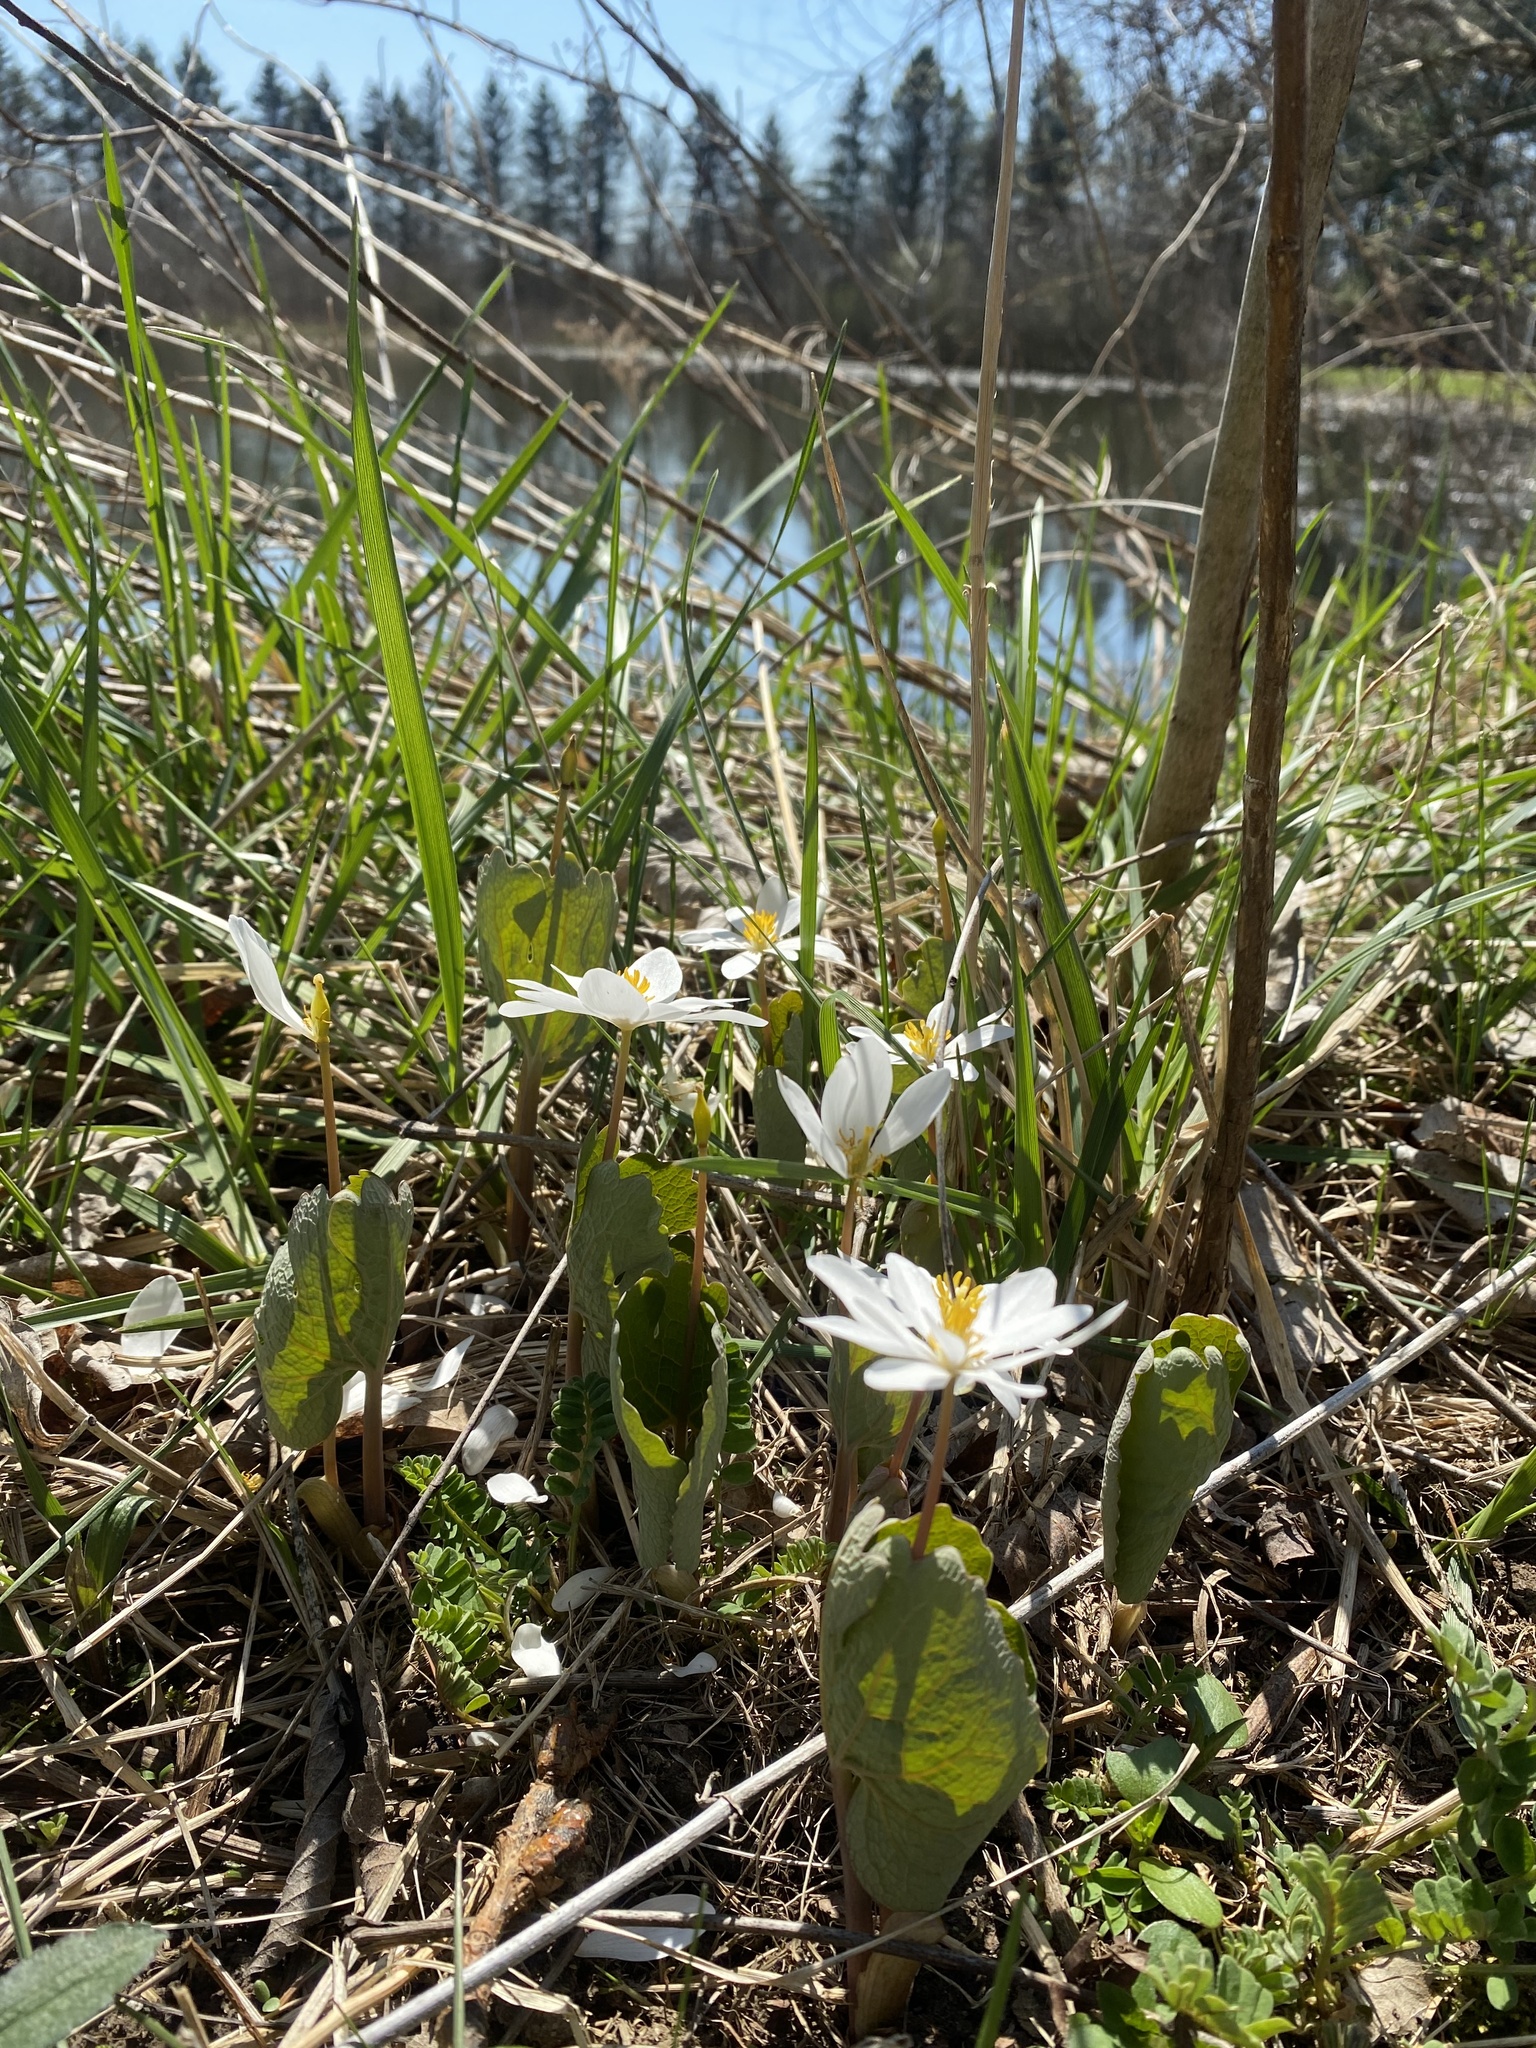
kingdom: Plantae
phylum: Tracheophyta
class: Magnoliopsida
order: Ranunculales
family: Papaveraceae
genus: Sanguinaria
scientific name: Sanguinaria canadensis
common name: Bloodroot
